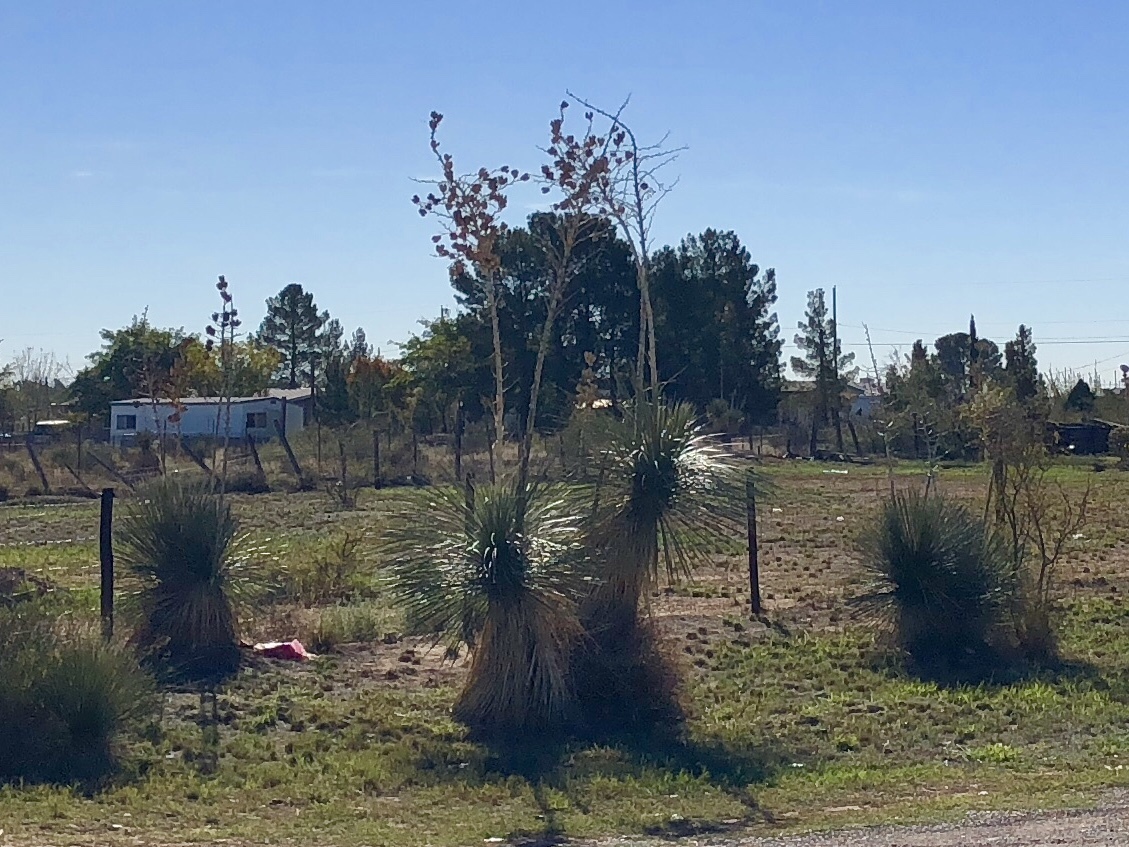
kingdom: Plantae
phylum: Tracheophyta
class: Liliopsida
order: Asparagales
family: Asparagaceae
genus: Yucca
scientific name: Yucca elata
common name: Palmella
